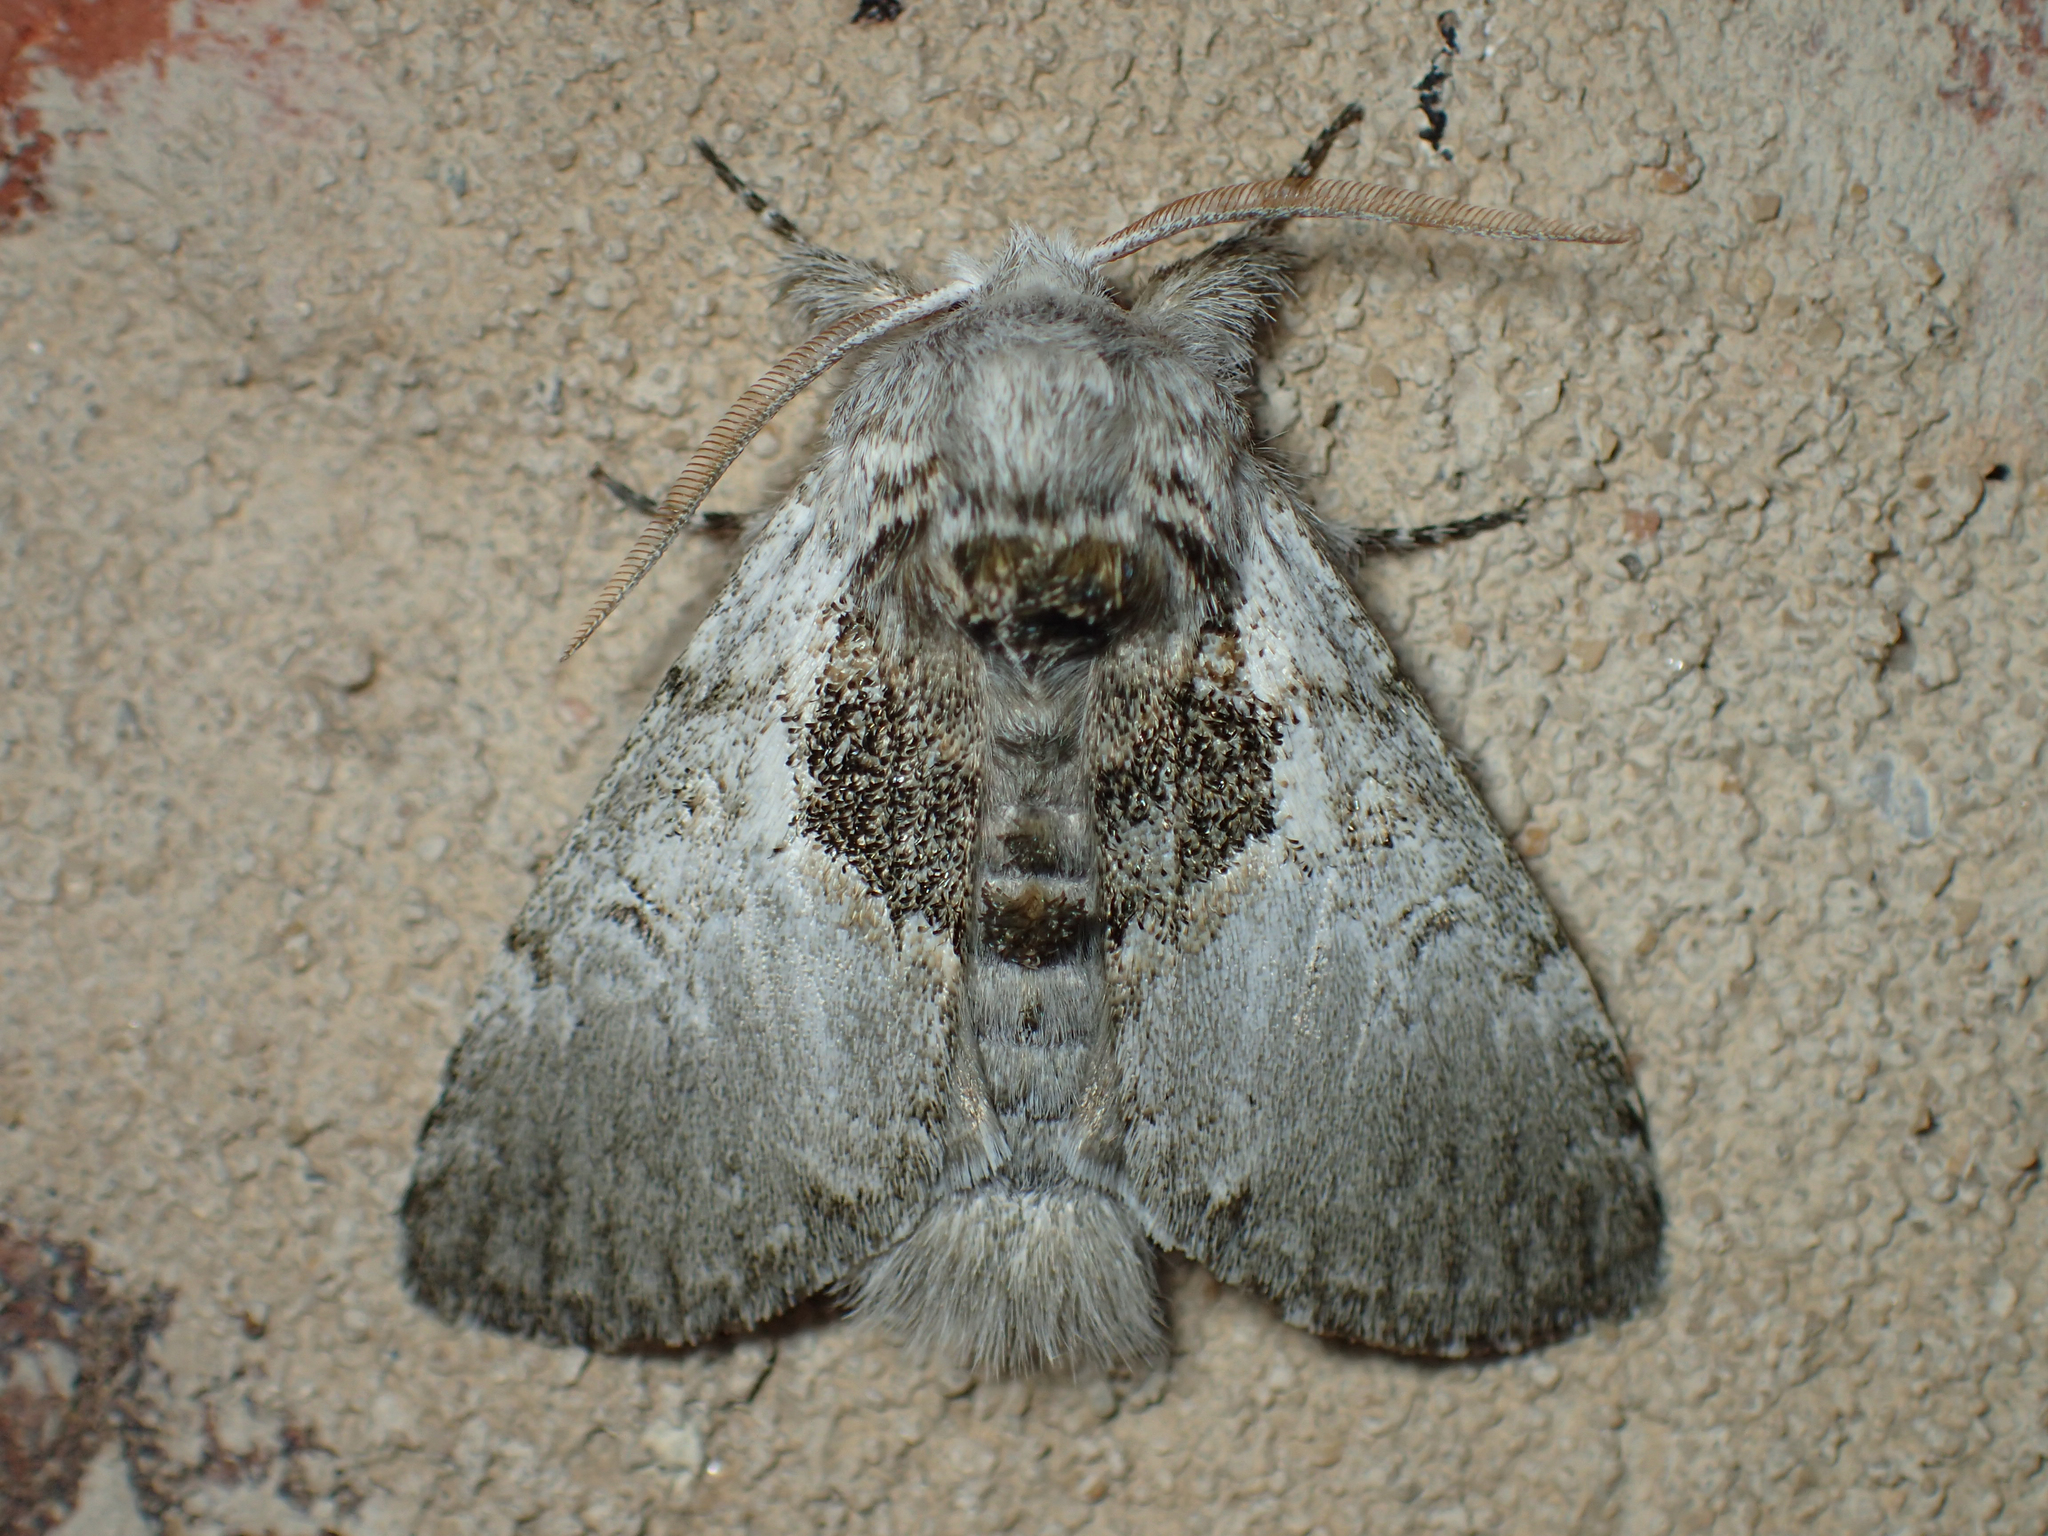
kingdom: Animalia
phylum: Arthropoda
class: Insecta
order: Lepidoptera
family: Noctuidae
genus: Colocasia
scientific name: Colocasia flavicornis
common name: Saddled yellowhorn
